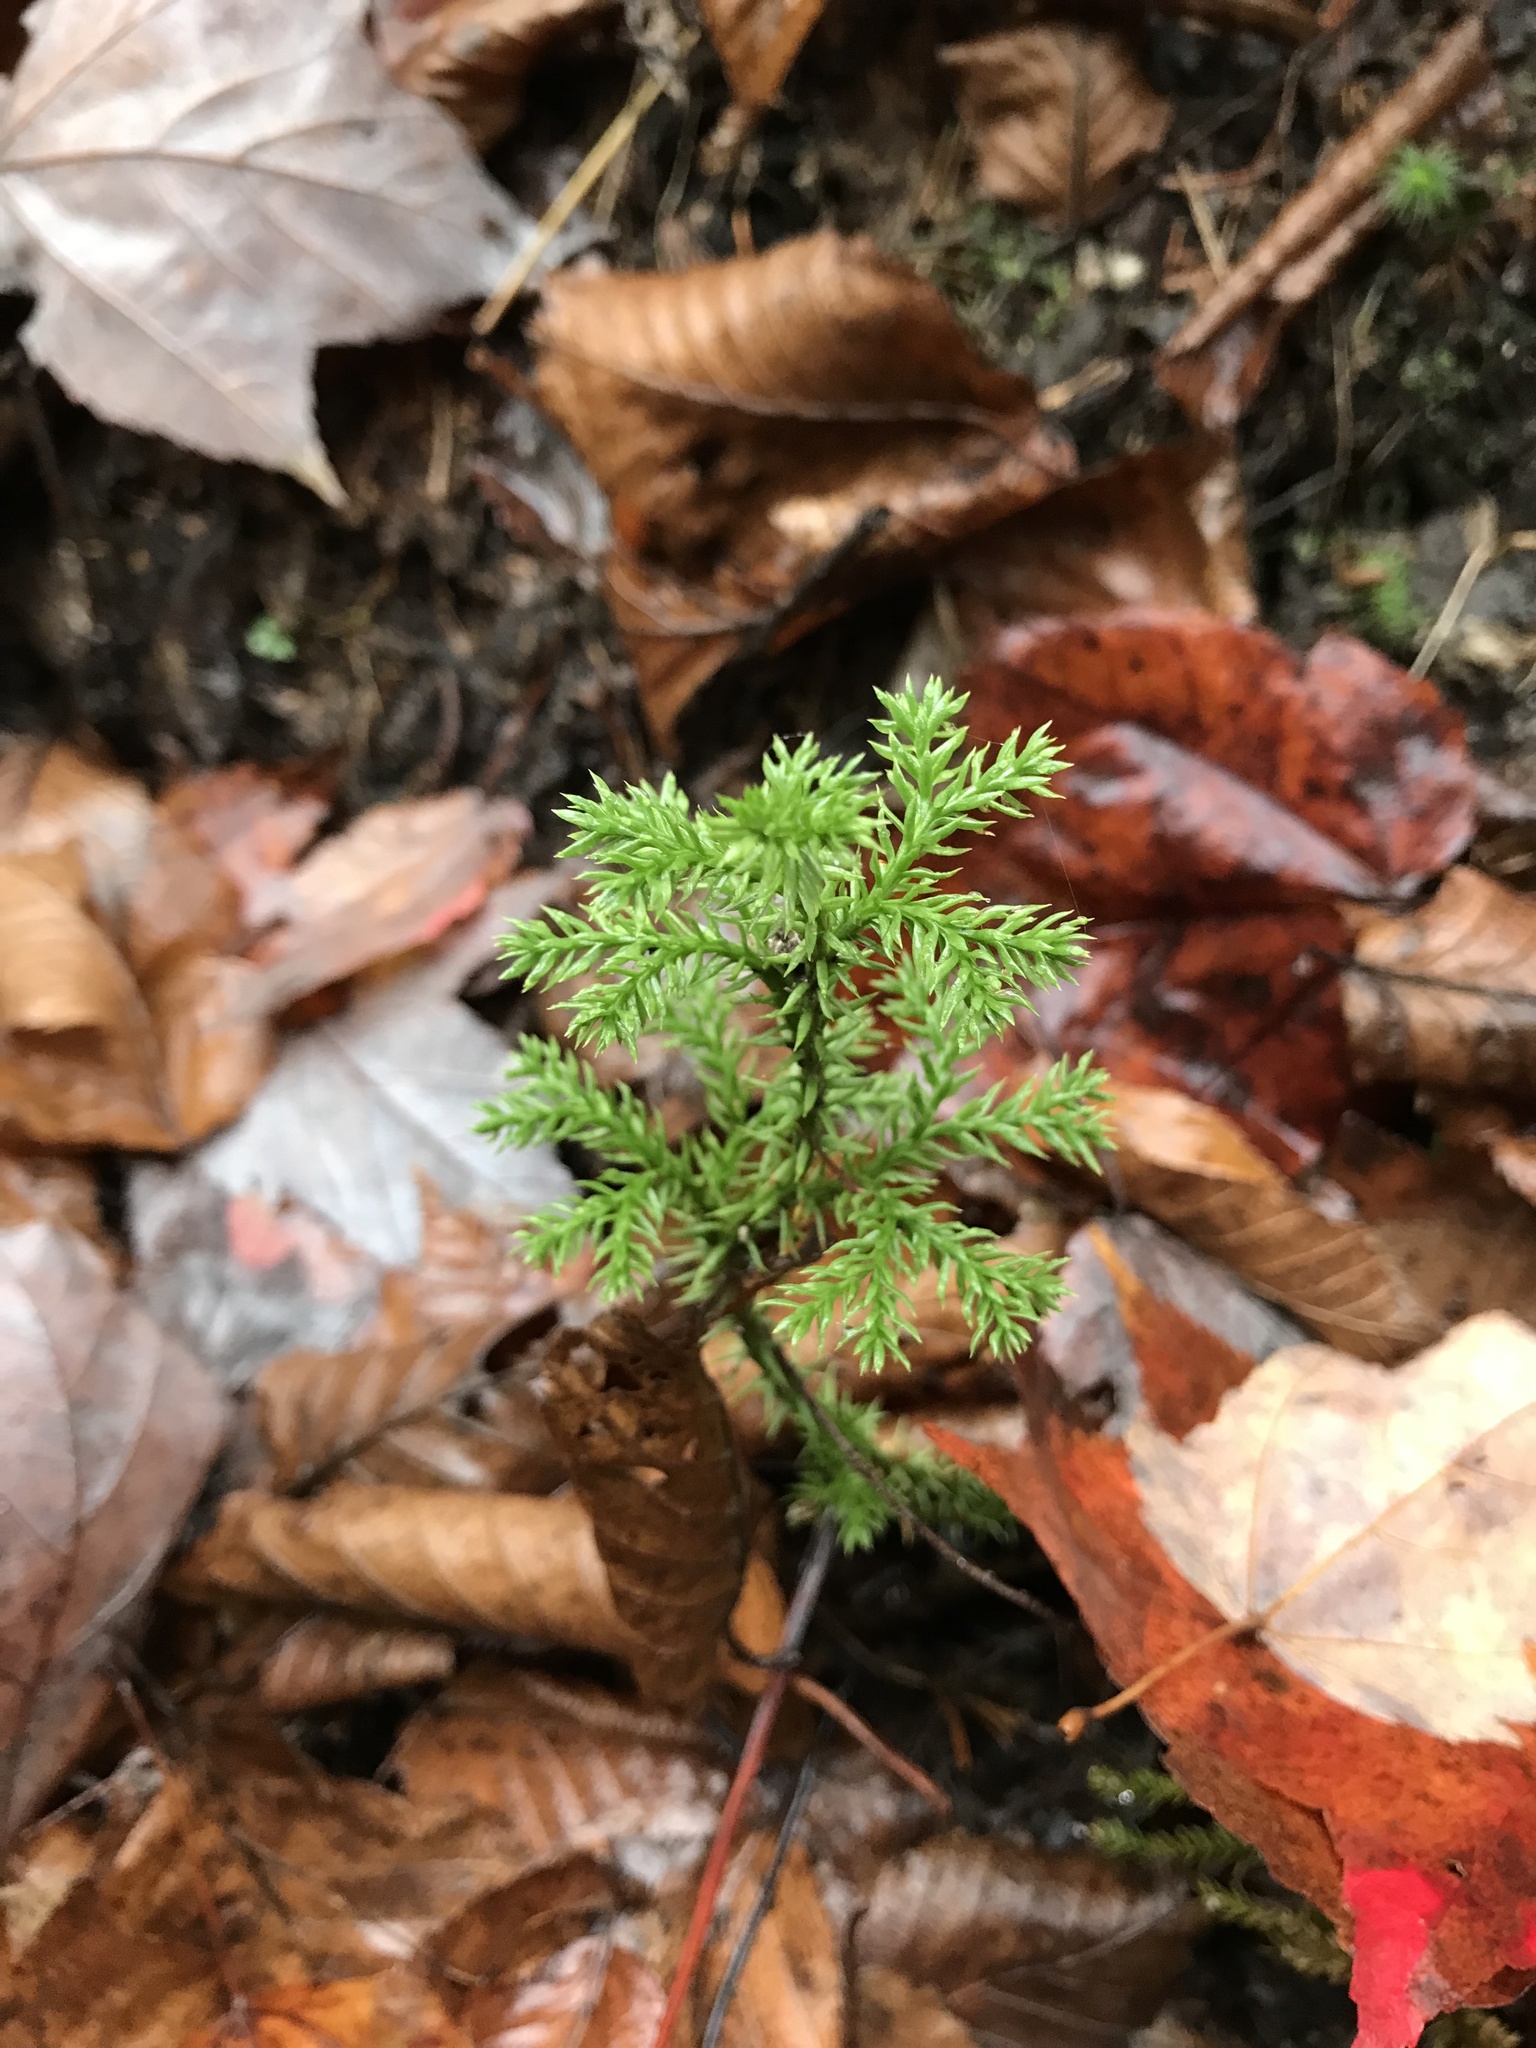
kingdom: Plantae
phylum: Tracheophyta
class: Lycopodiopsida
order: Lycopodiales
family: Lycopodiaceae
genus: Dendrolycopodium
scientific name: Dendrolycopodium dendroideum
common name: Northern tree-clubmoss
